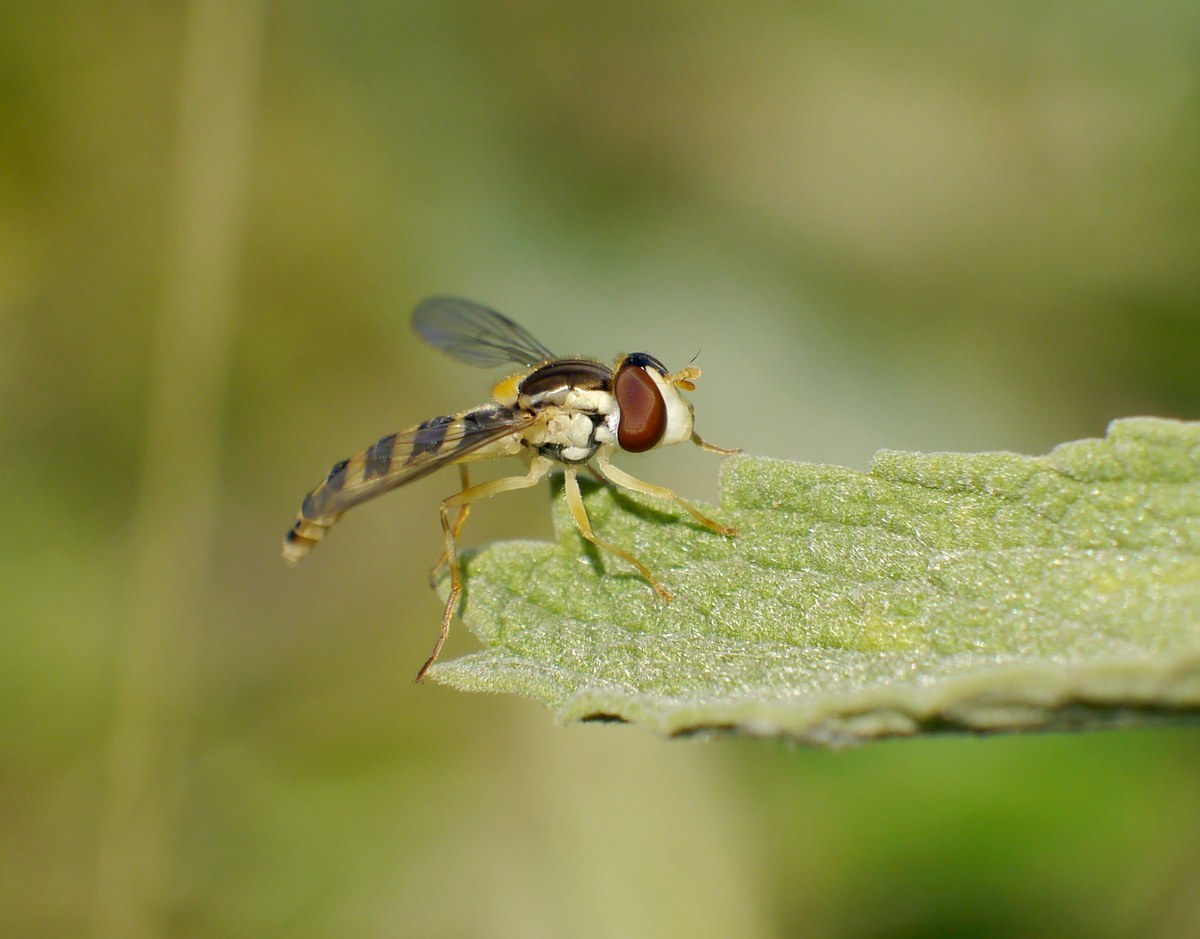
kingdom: Animalia
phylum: Arthropoda
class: Insecta
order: Diptera
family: Syrphidae
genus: Sphaerophoria
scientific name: Sphaerophoria
